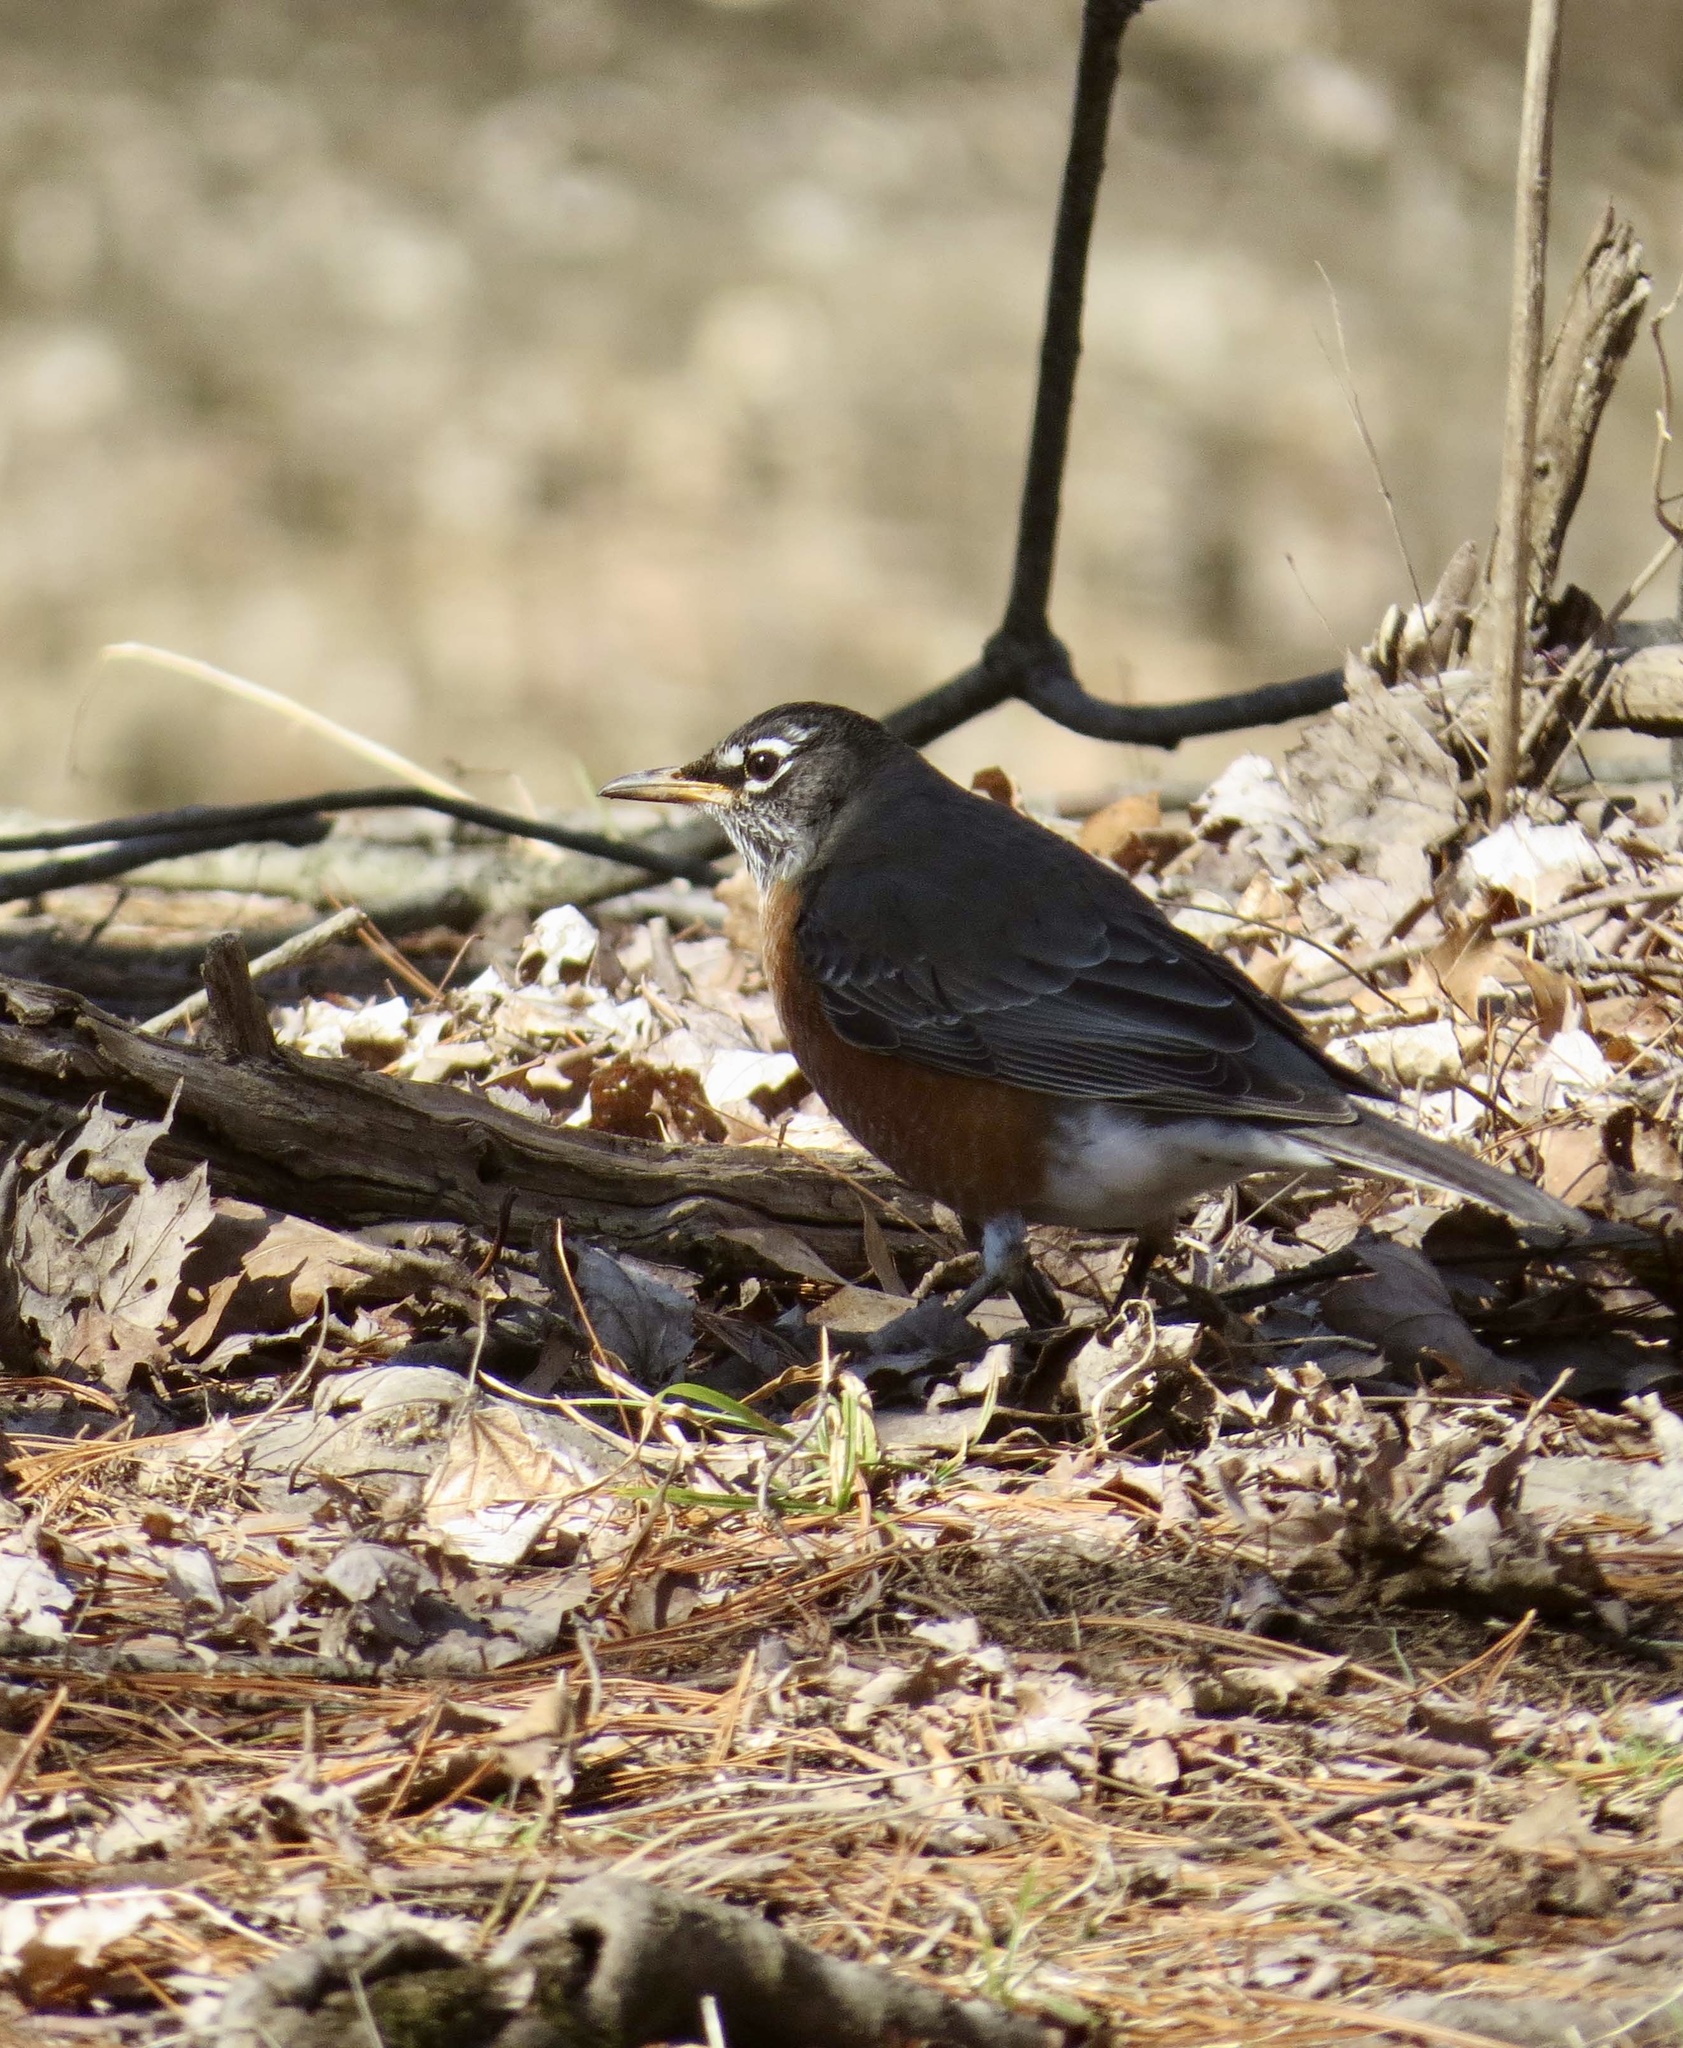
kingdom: Animalia
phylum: Chordata
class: Aves
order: Passeriformes
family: Turdidae
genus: Turdus
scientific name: Turdus migratorius
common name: American robin
